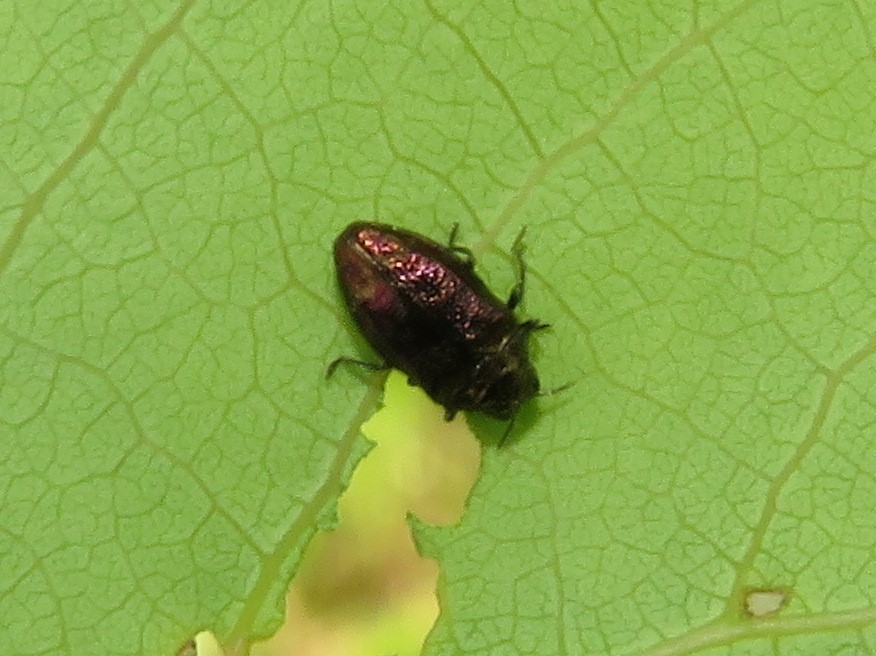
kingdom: Animalia
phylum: Arthropoda
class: Insecta
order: Coleoptera
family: Buprestidae
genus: Brachys
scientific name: Brachys aerosus
